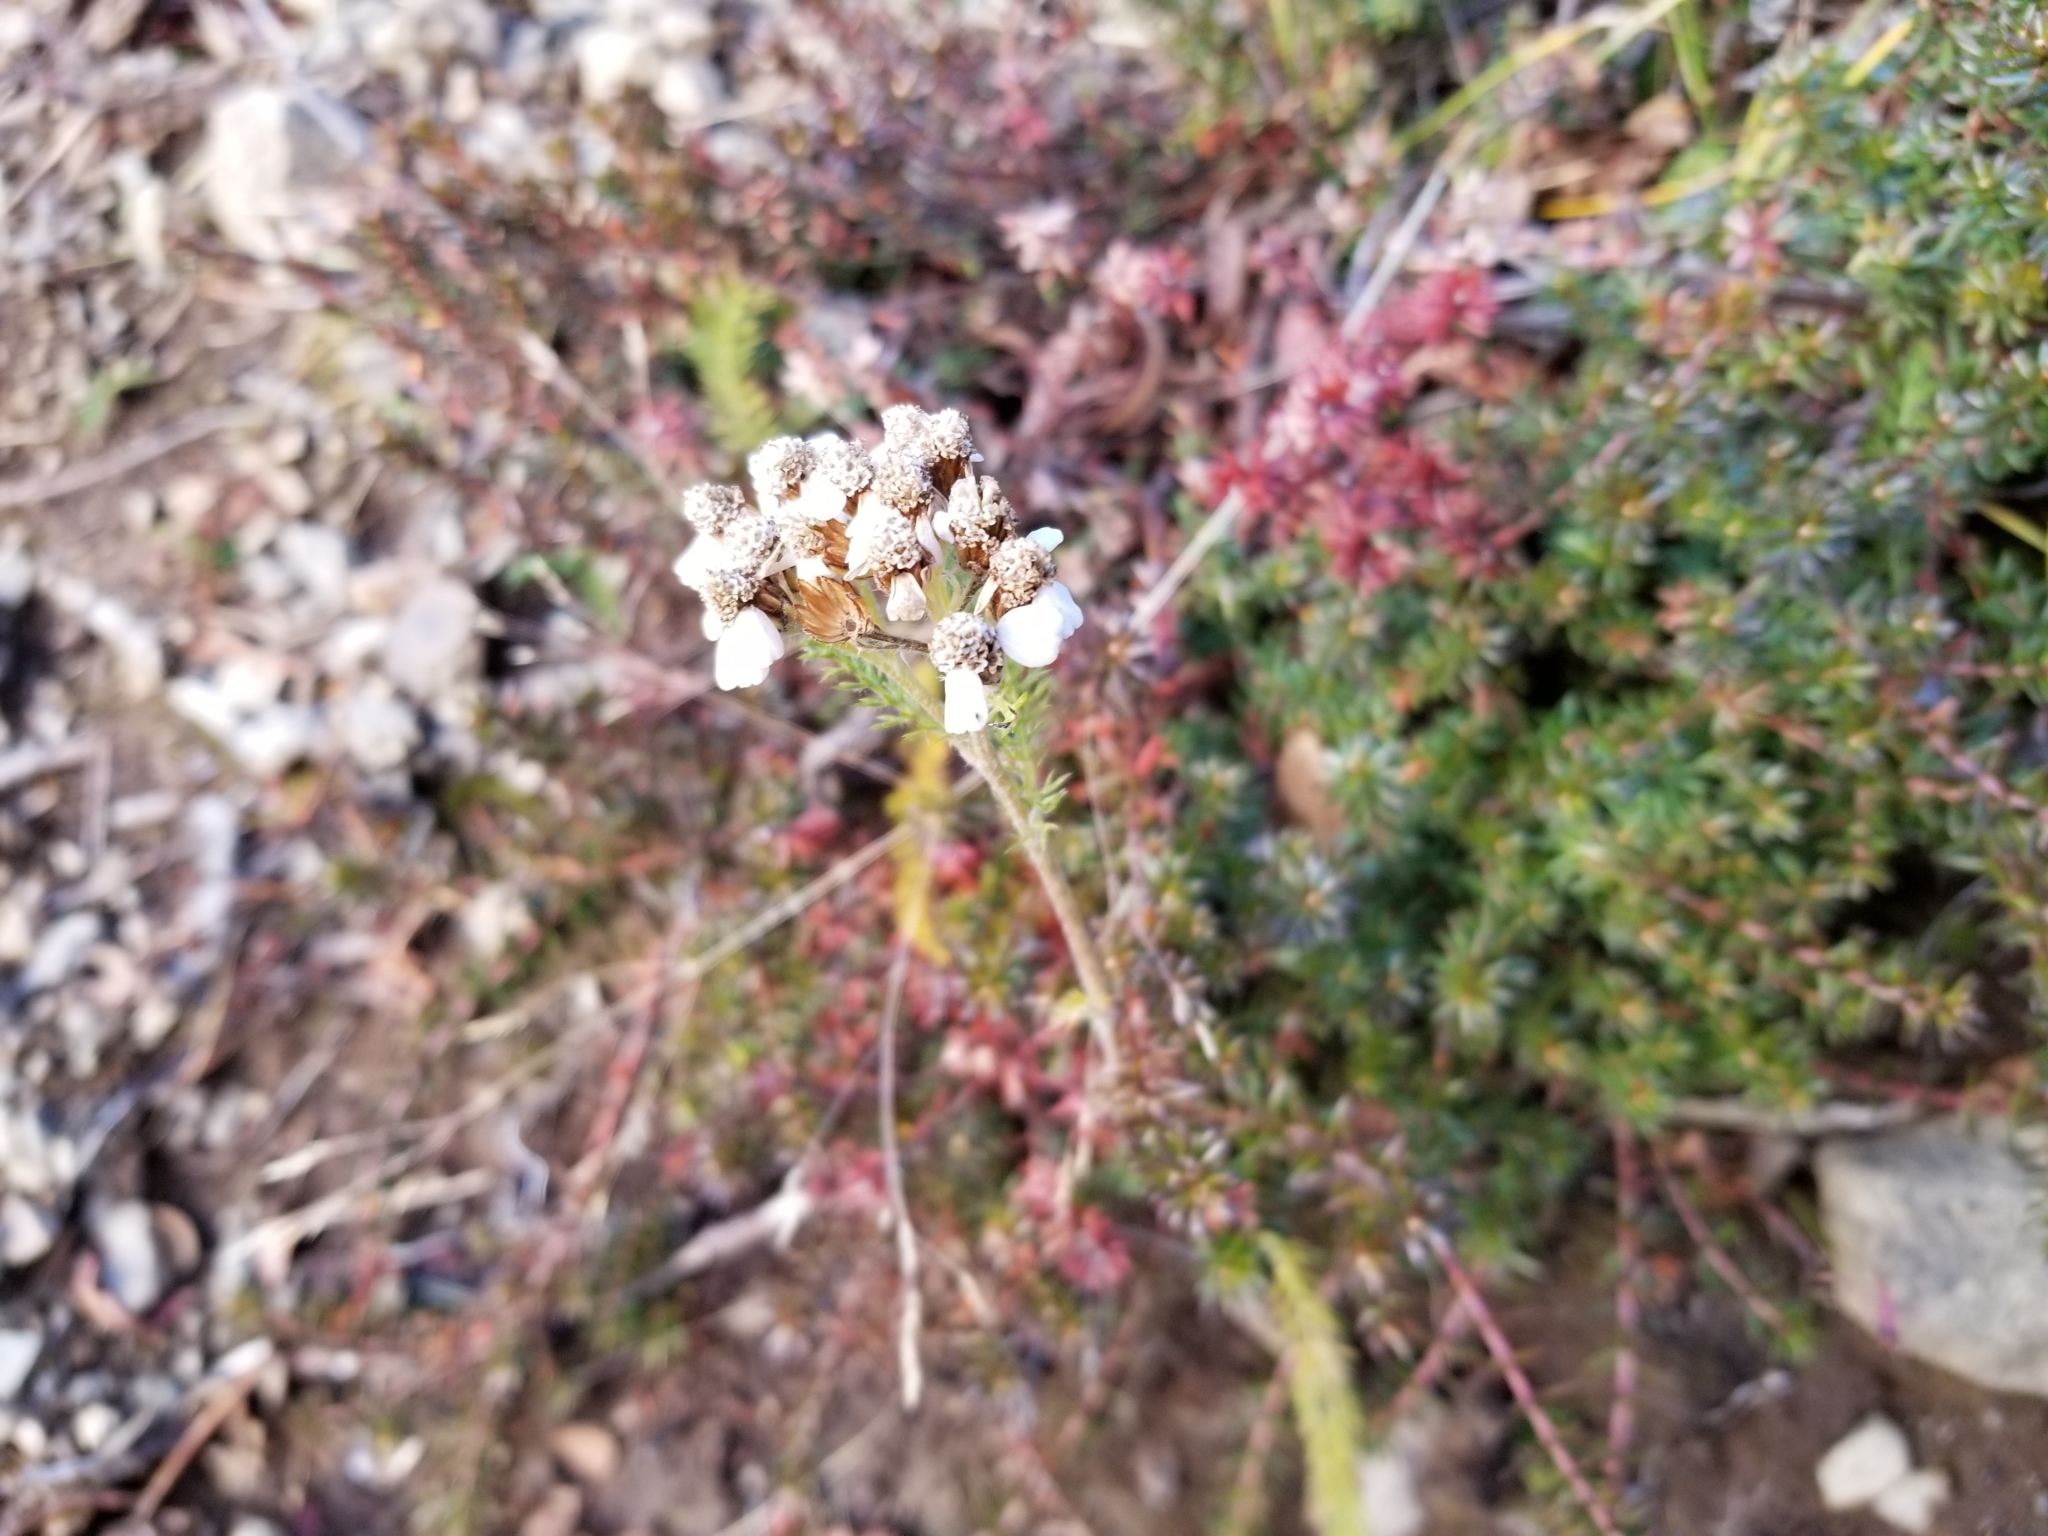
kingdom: Plantae
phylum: Tracheophyta
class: Magnoliopsida
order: Asterales
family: Asteraceae
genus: Achillea
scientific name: Achillea millefolium
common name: Yarrow
